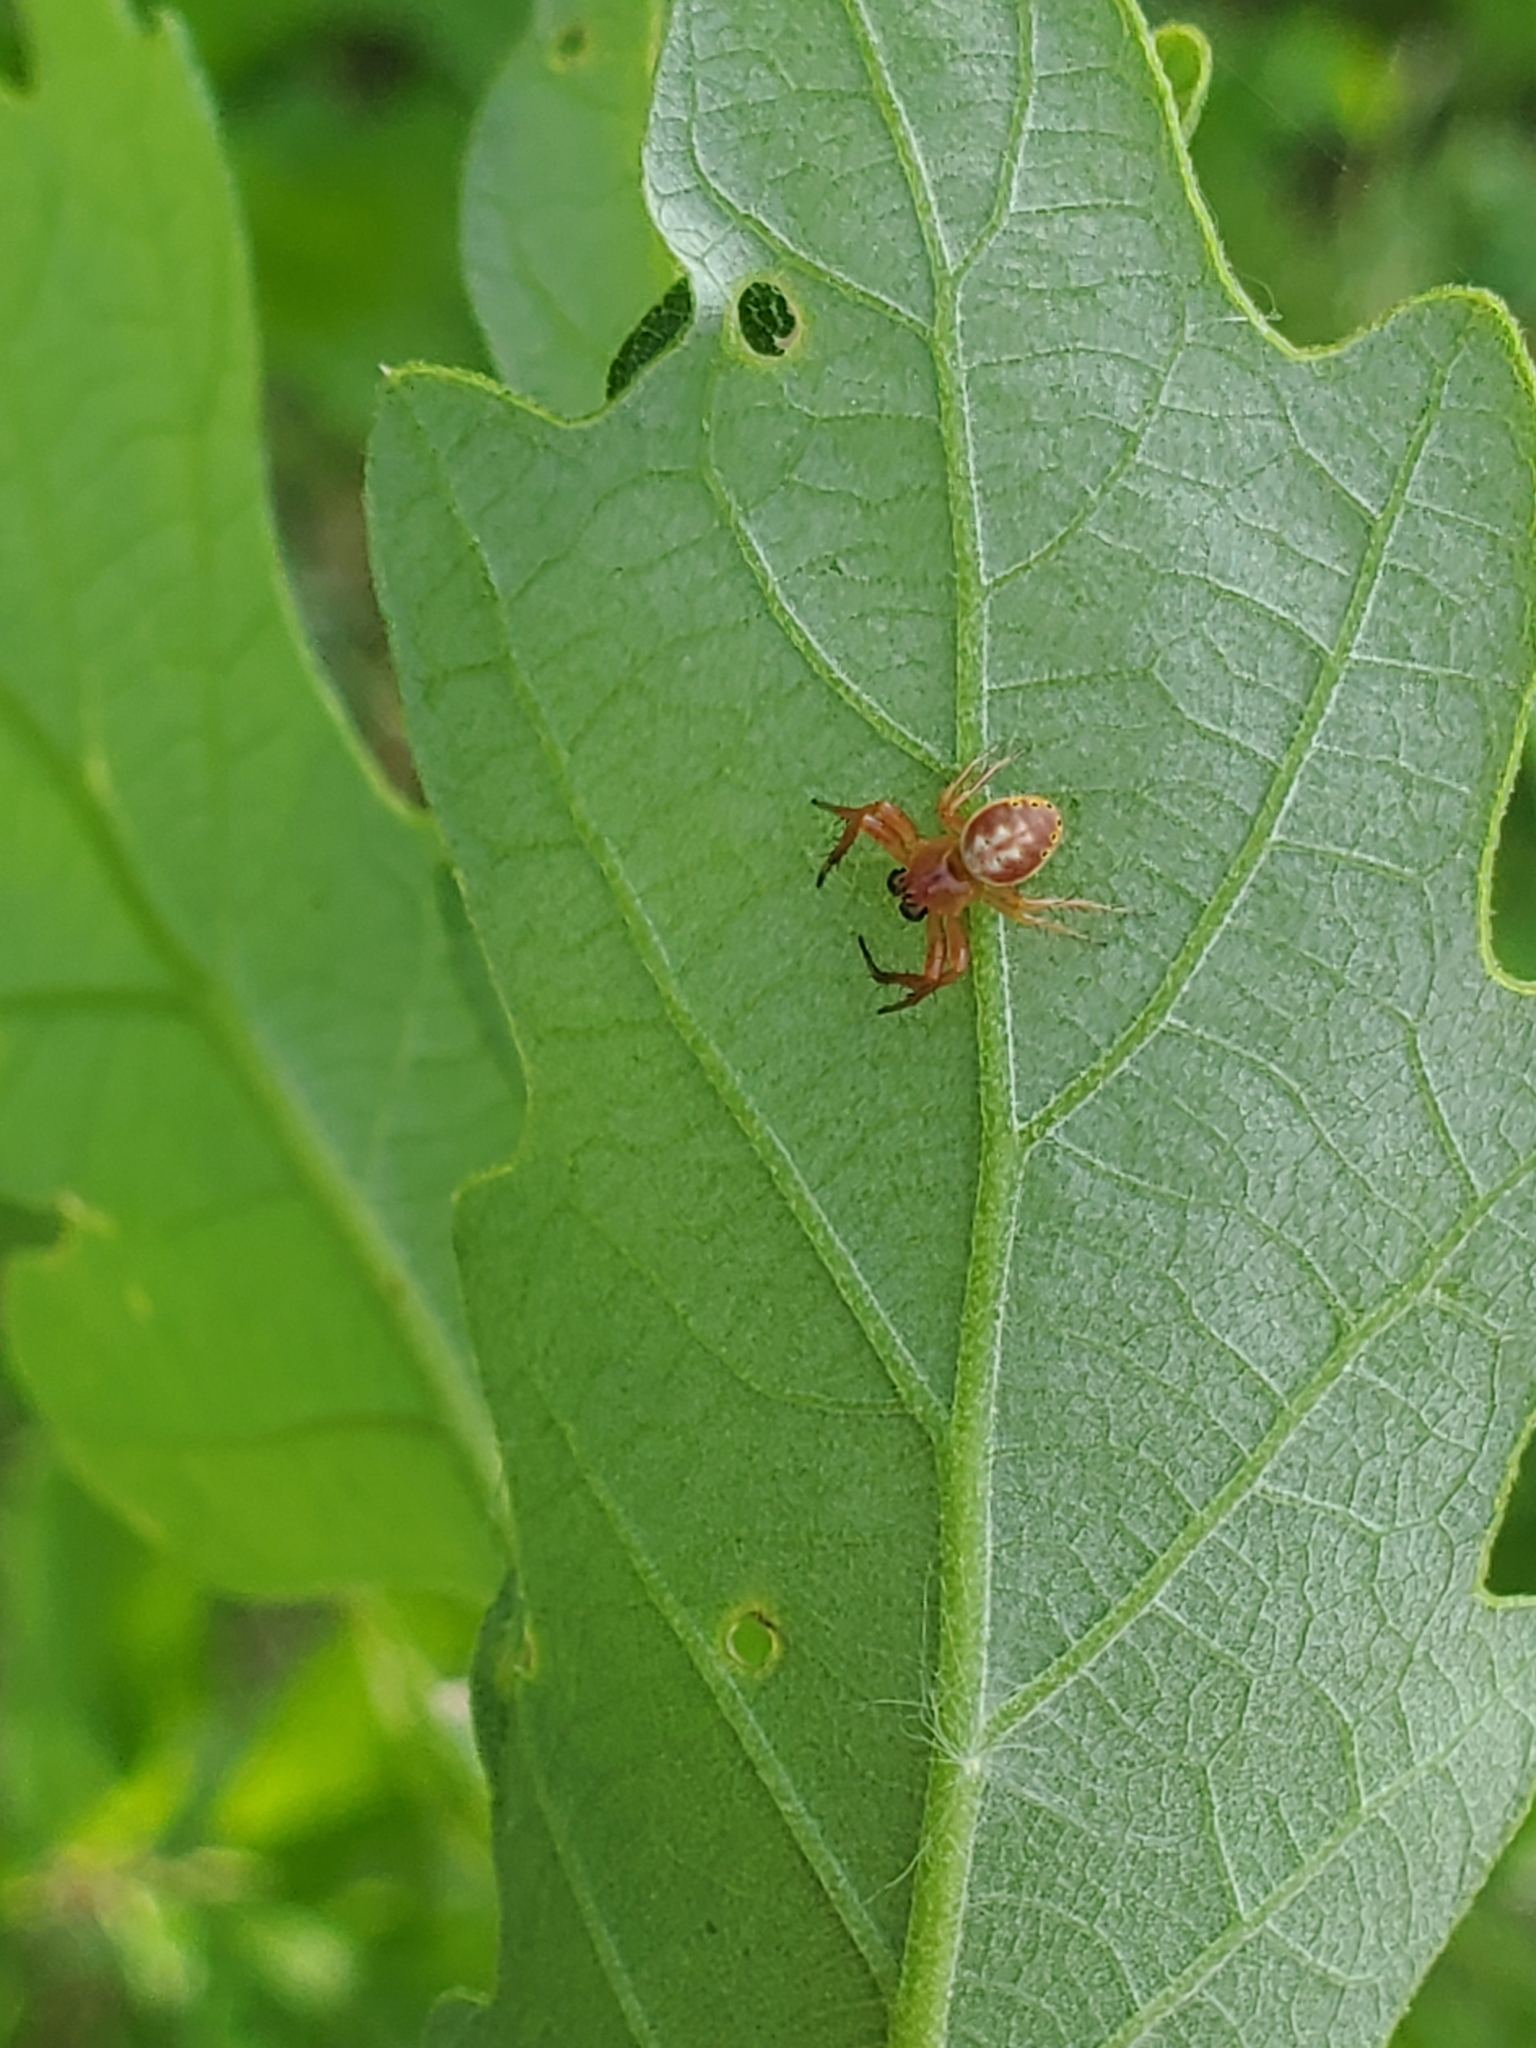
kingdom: Animalia
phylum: Arthropoda
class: Arachnida
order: Araneae
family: Araneidae
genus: Araniella
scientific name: Araniella displicata
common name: Sixspotted orb weaver
